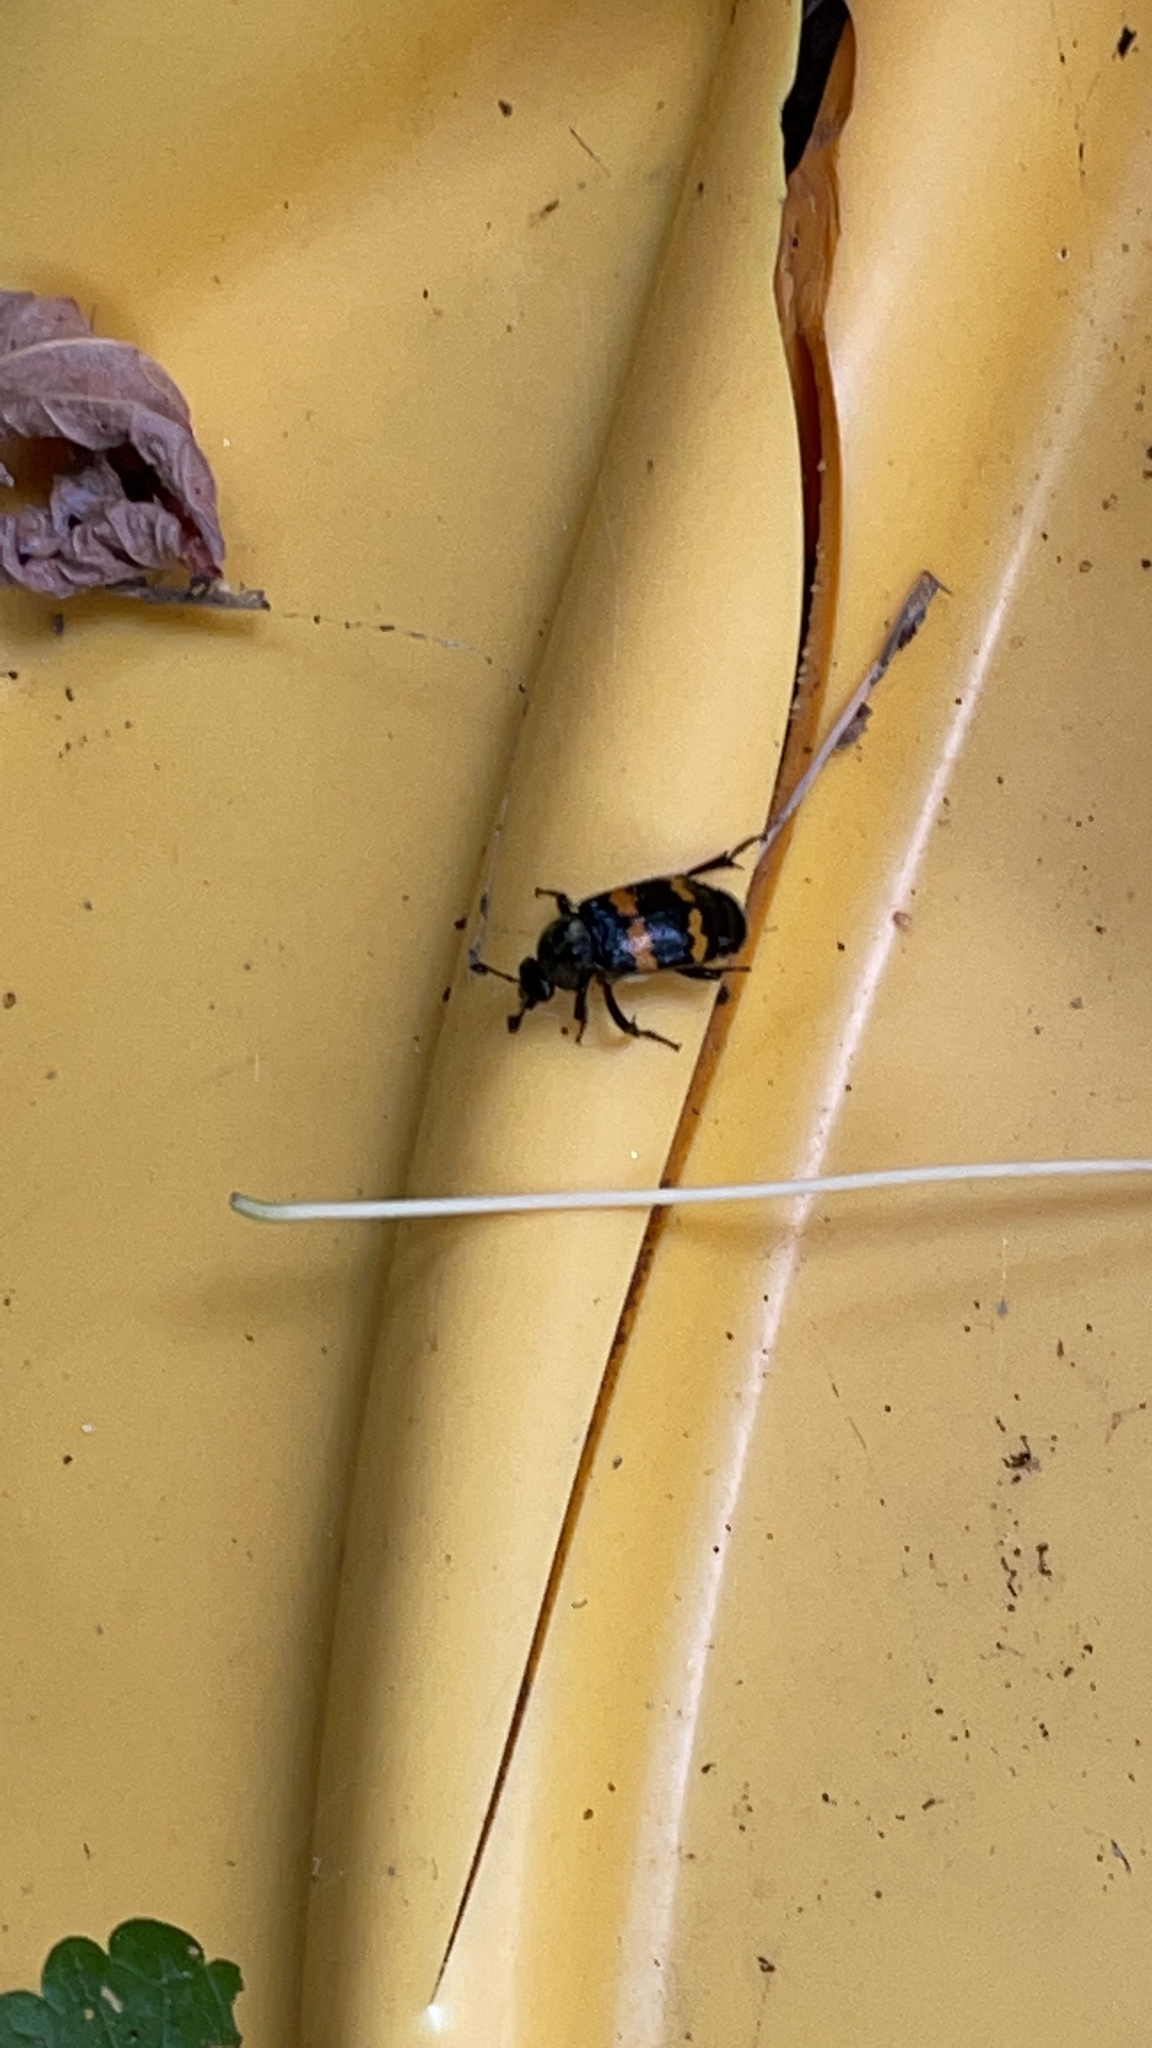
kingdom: Animalia
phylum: Arthropoda
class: Insecta
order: Coleoptera
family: Staphylinidae
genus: Nicrophorus
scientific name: Nicrophorus tomentosus
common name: Tomentose burying beetle
